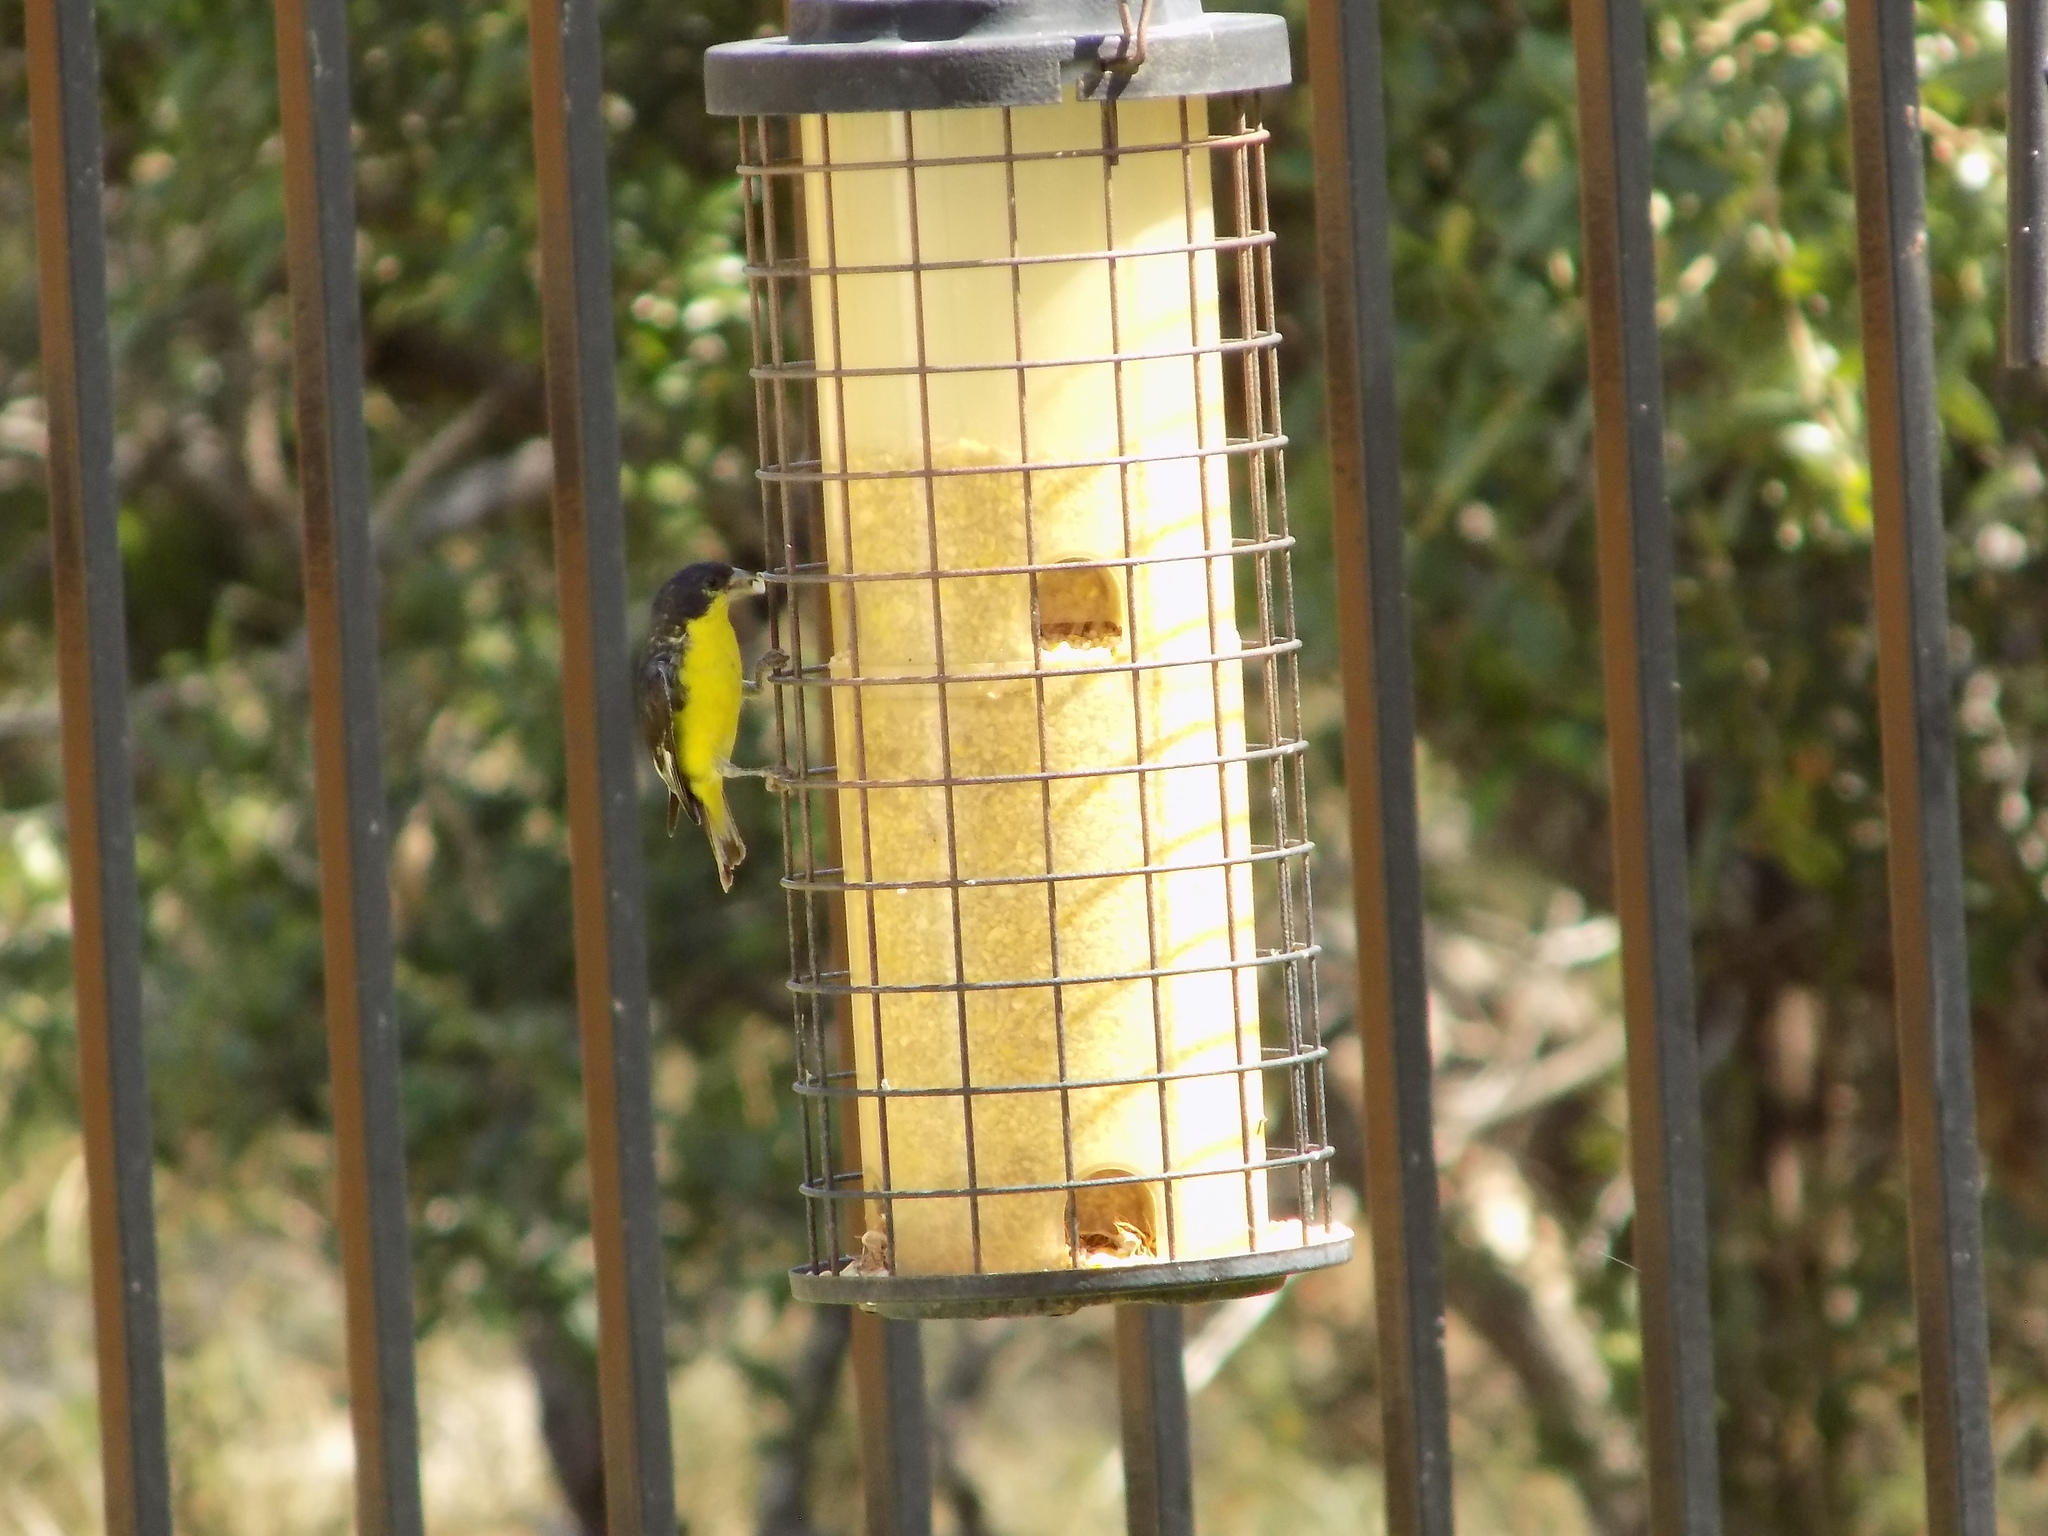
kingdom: Animalia
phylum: Chordata
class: Aves
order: Passeriformes
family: Fringillidae
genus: Spinus
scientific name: Spinus psaltria
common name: Lesser goldfinch
